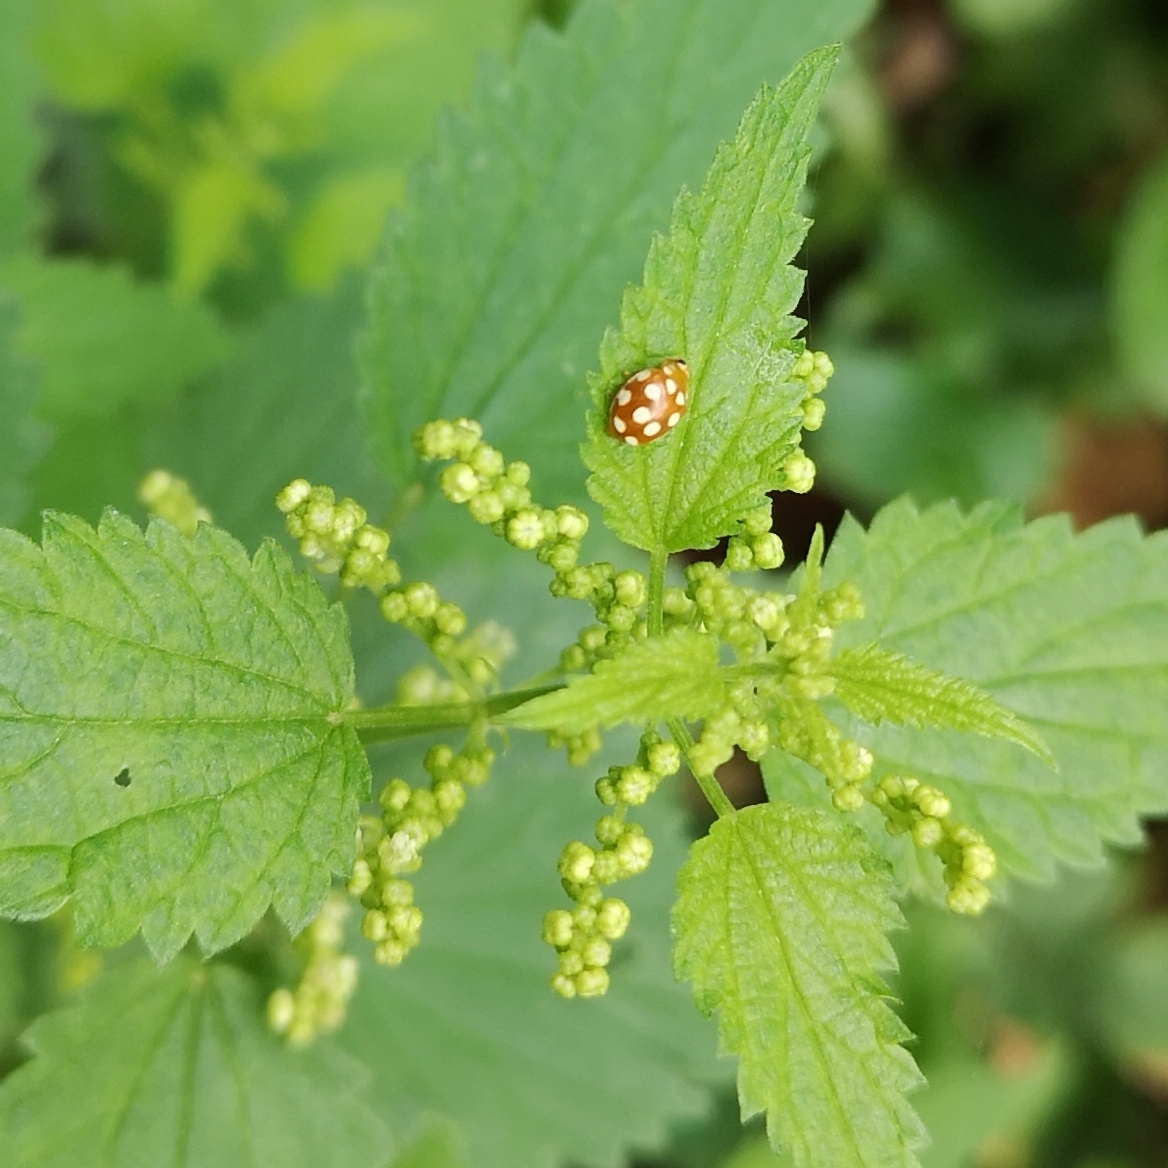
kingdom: Animalia
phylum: Arthropoda
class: Insecta
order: Coleoptera
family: Coccinellidae
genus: Vibidia
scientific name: Vibidia duodecimguttata
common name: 12-spot ladybird
